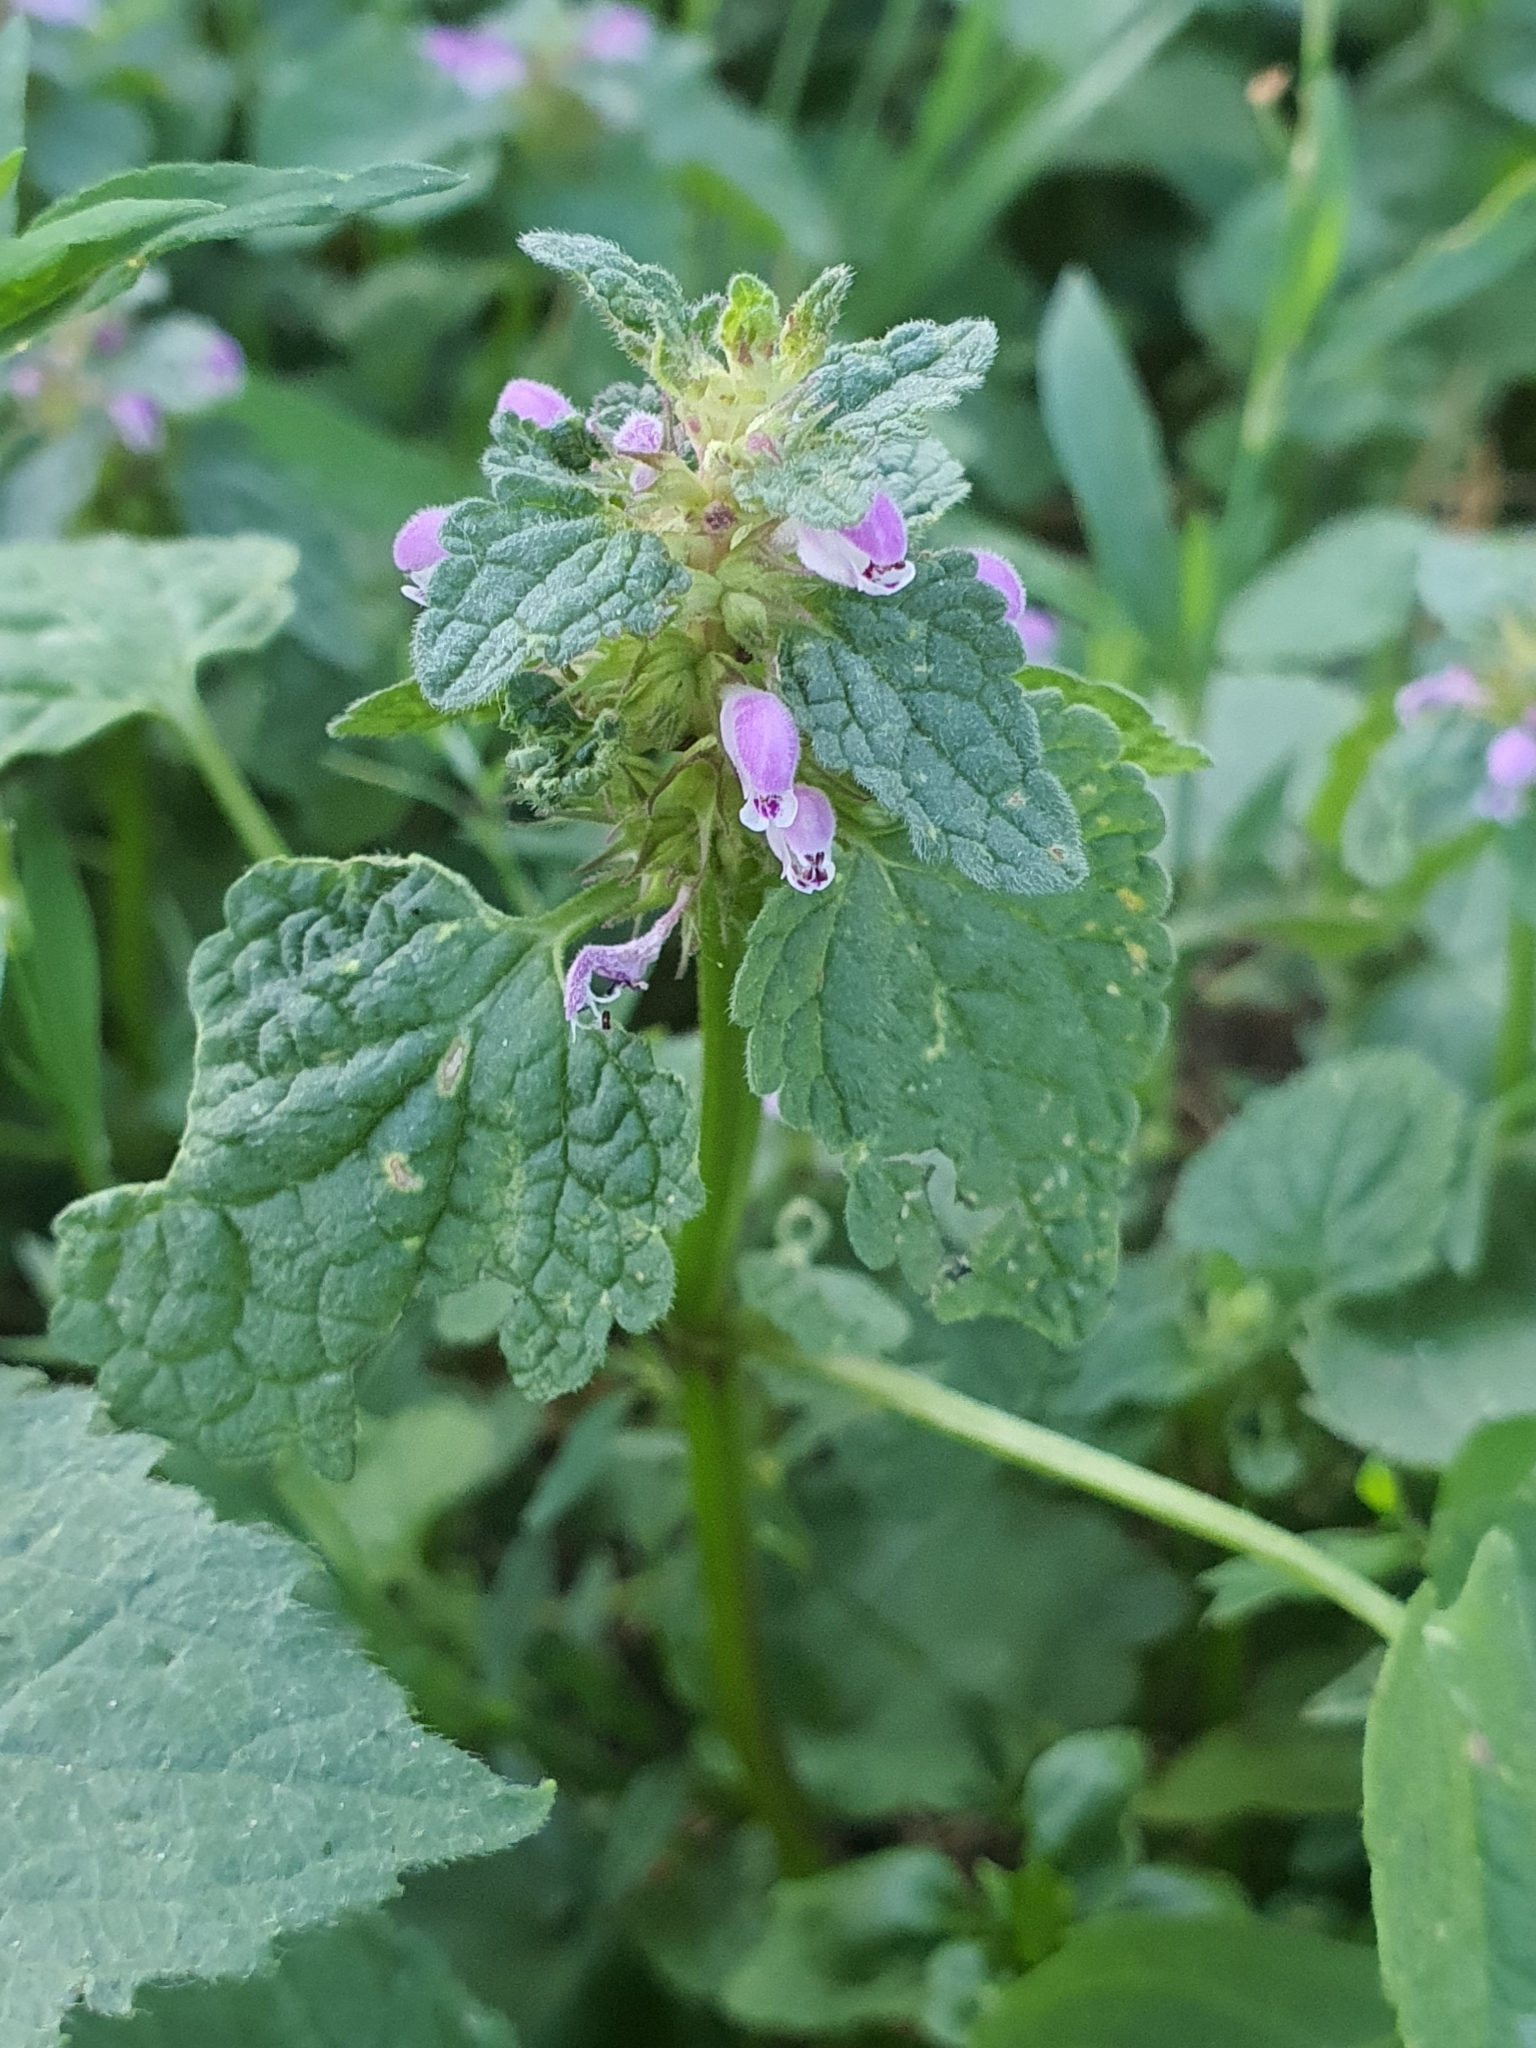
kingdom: Plantae
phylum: Tracheophyta
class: Magnoliopsida
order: Lamiales
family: Lamiaceae
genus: Lamium
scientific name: Lamium purpureum
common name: Red dead-nettle
